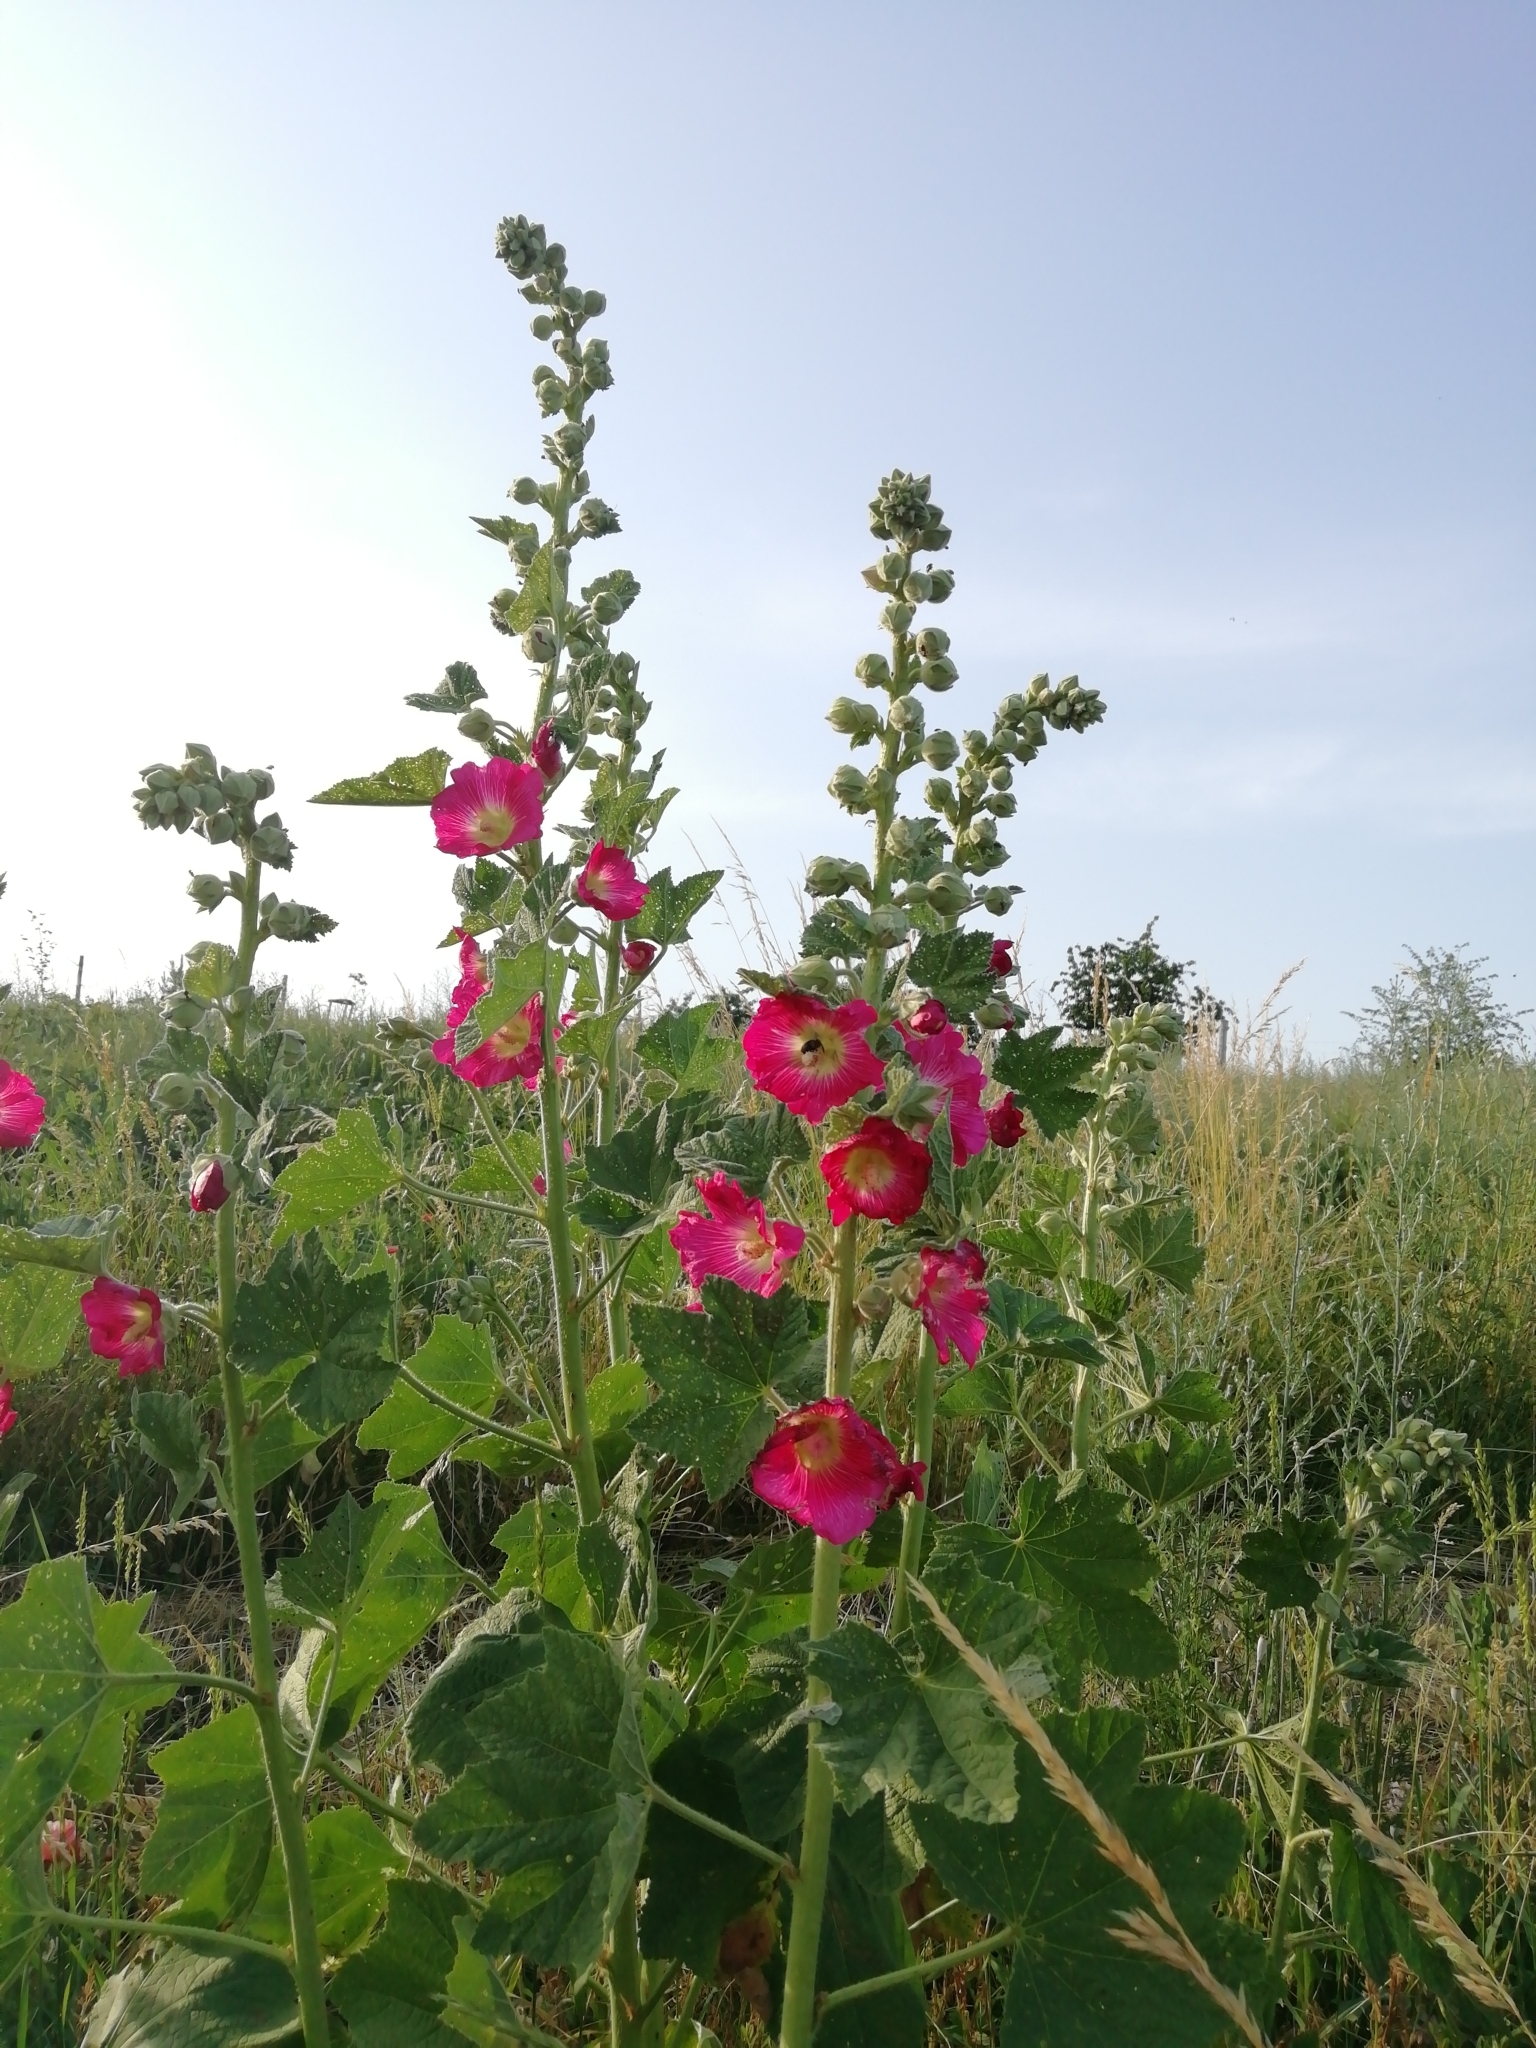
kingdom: Plantae
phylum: Tracheophyta
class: Magnoliopsida
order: Malvales
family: Malvaceae
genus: Alcea
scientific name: Alcea rosea
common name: Hollyhock
